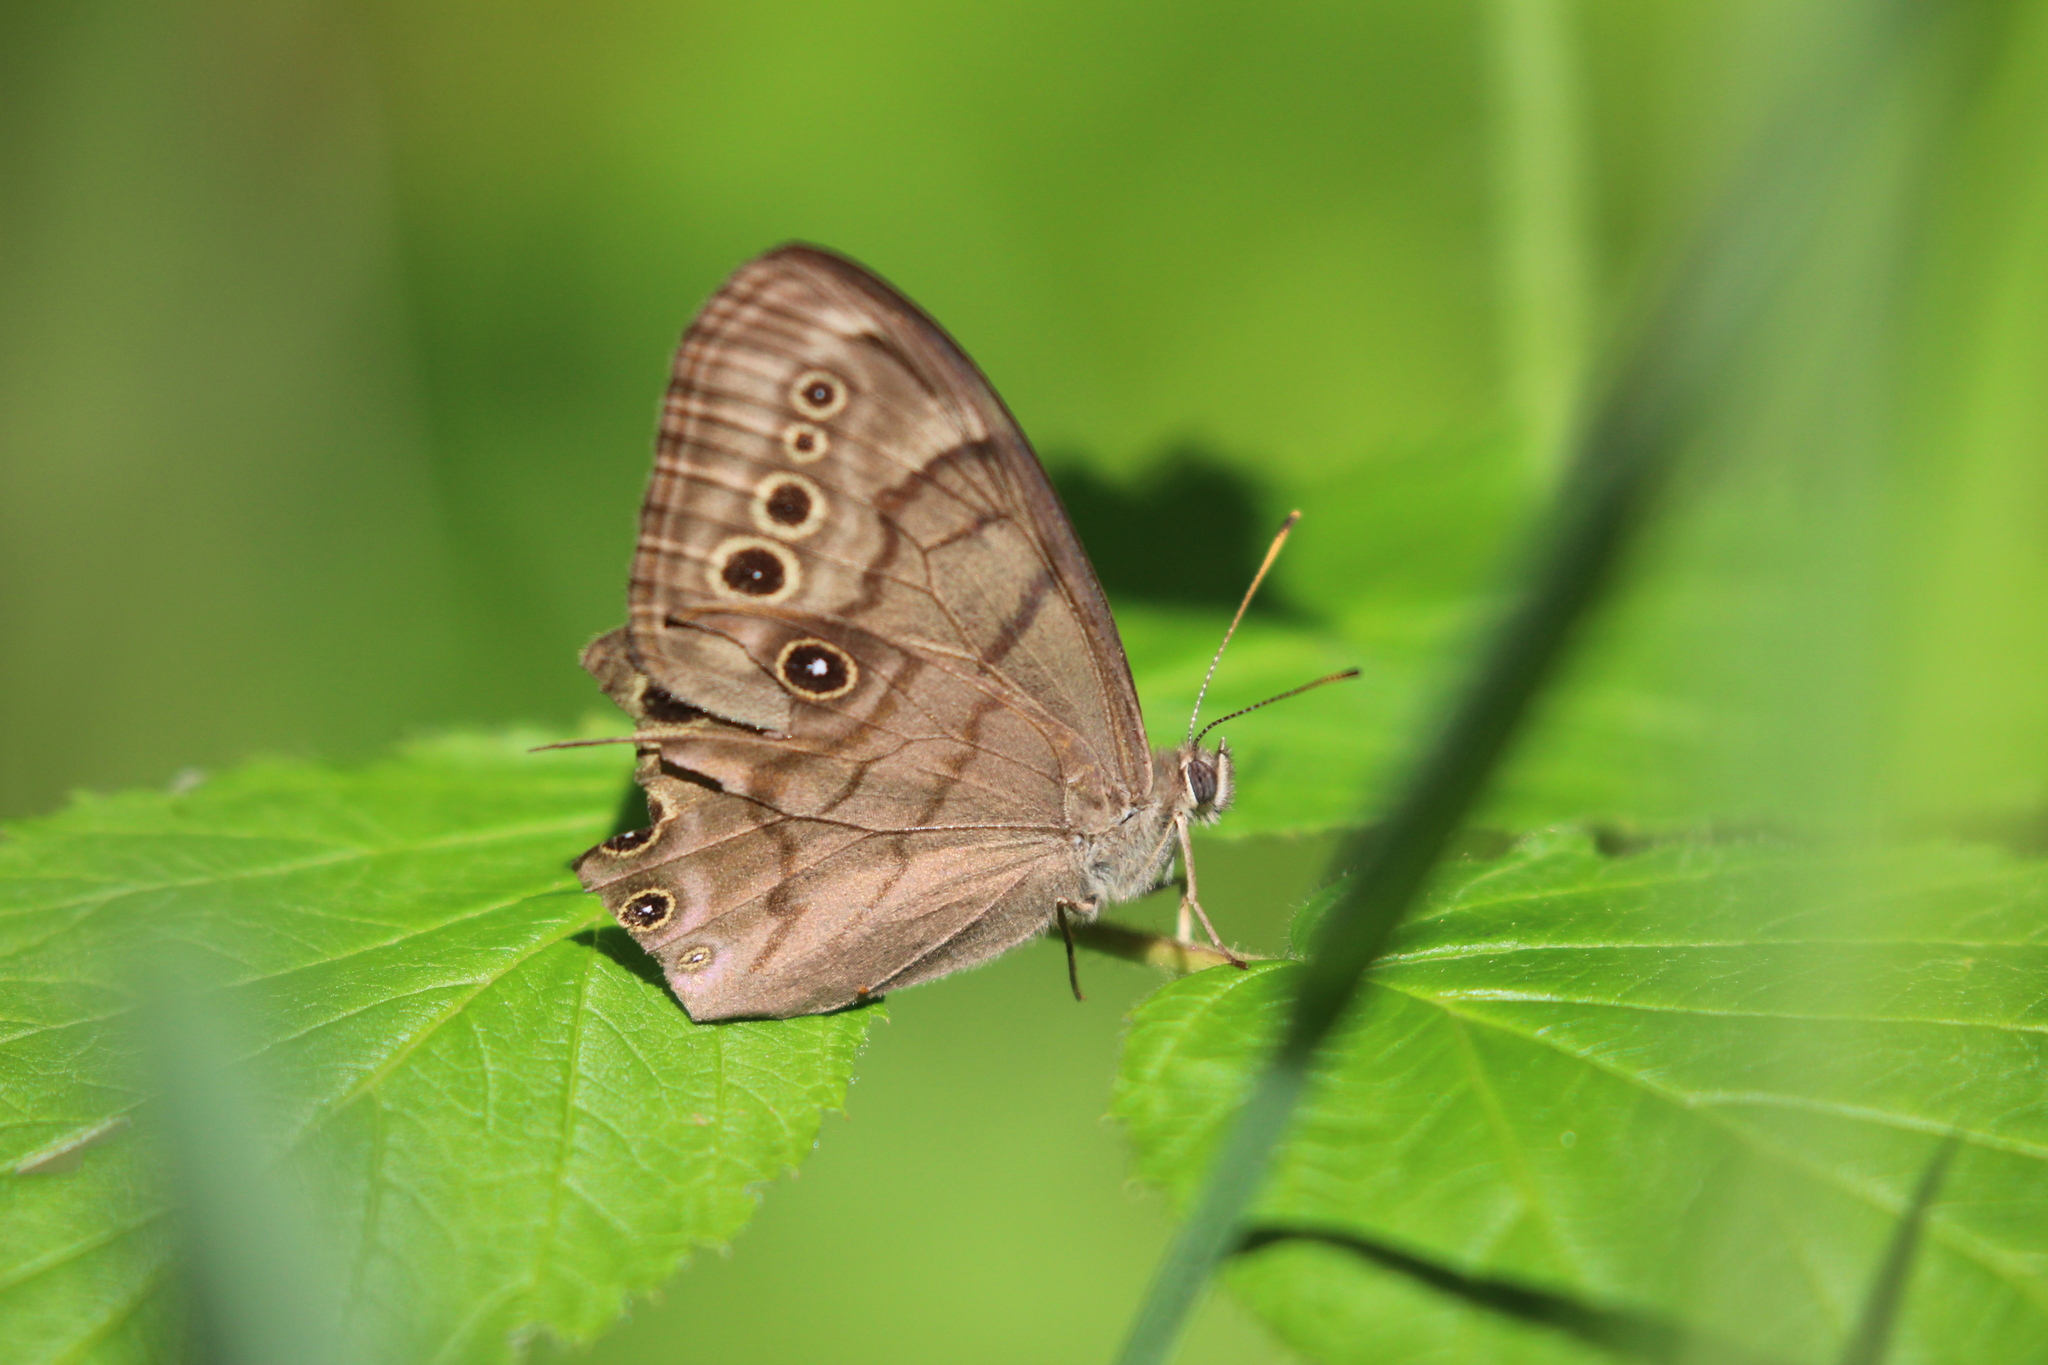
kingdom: Animalia
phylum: Arthropoda
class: Insecta
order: Lepidoptera
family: Nymphalidae
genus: Lethe
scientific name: Lethe anthedon
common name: Northern pearly-eye
